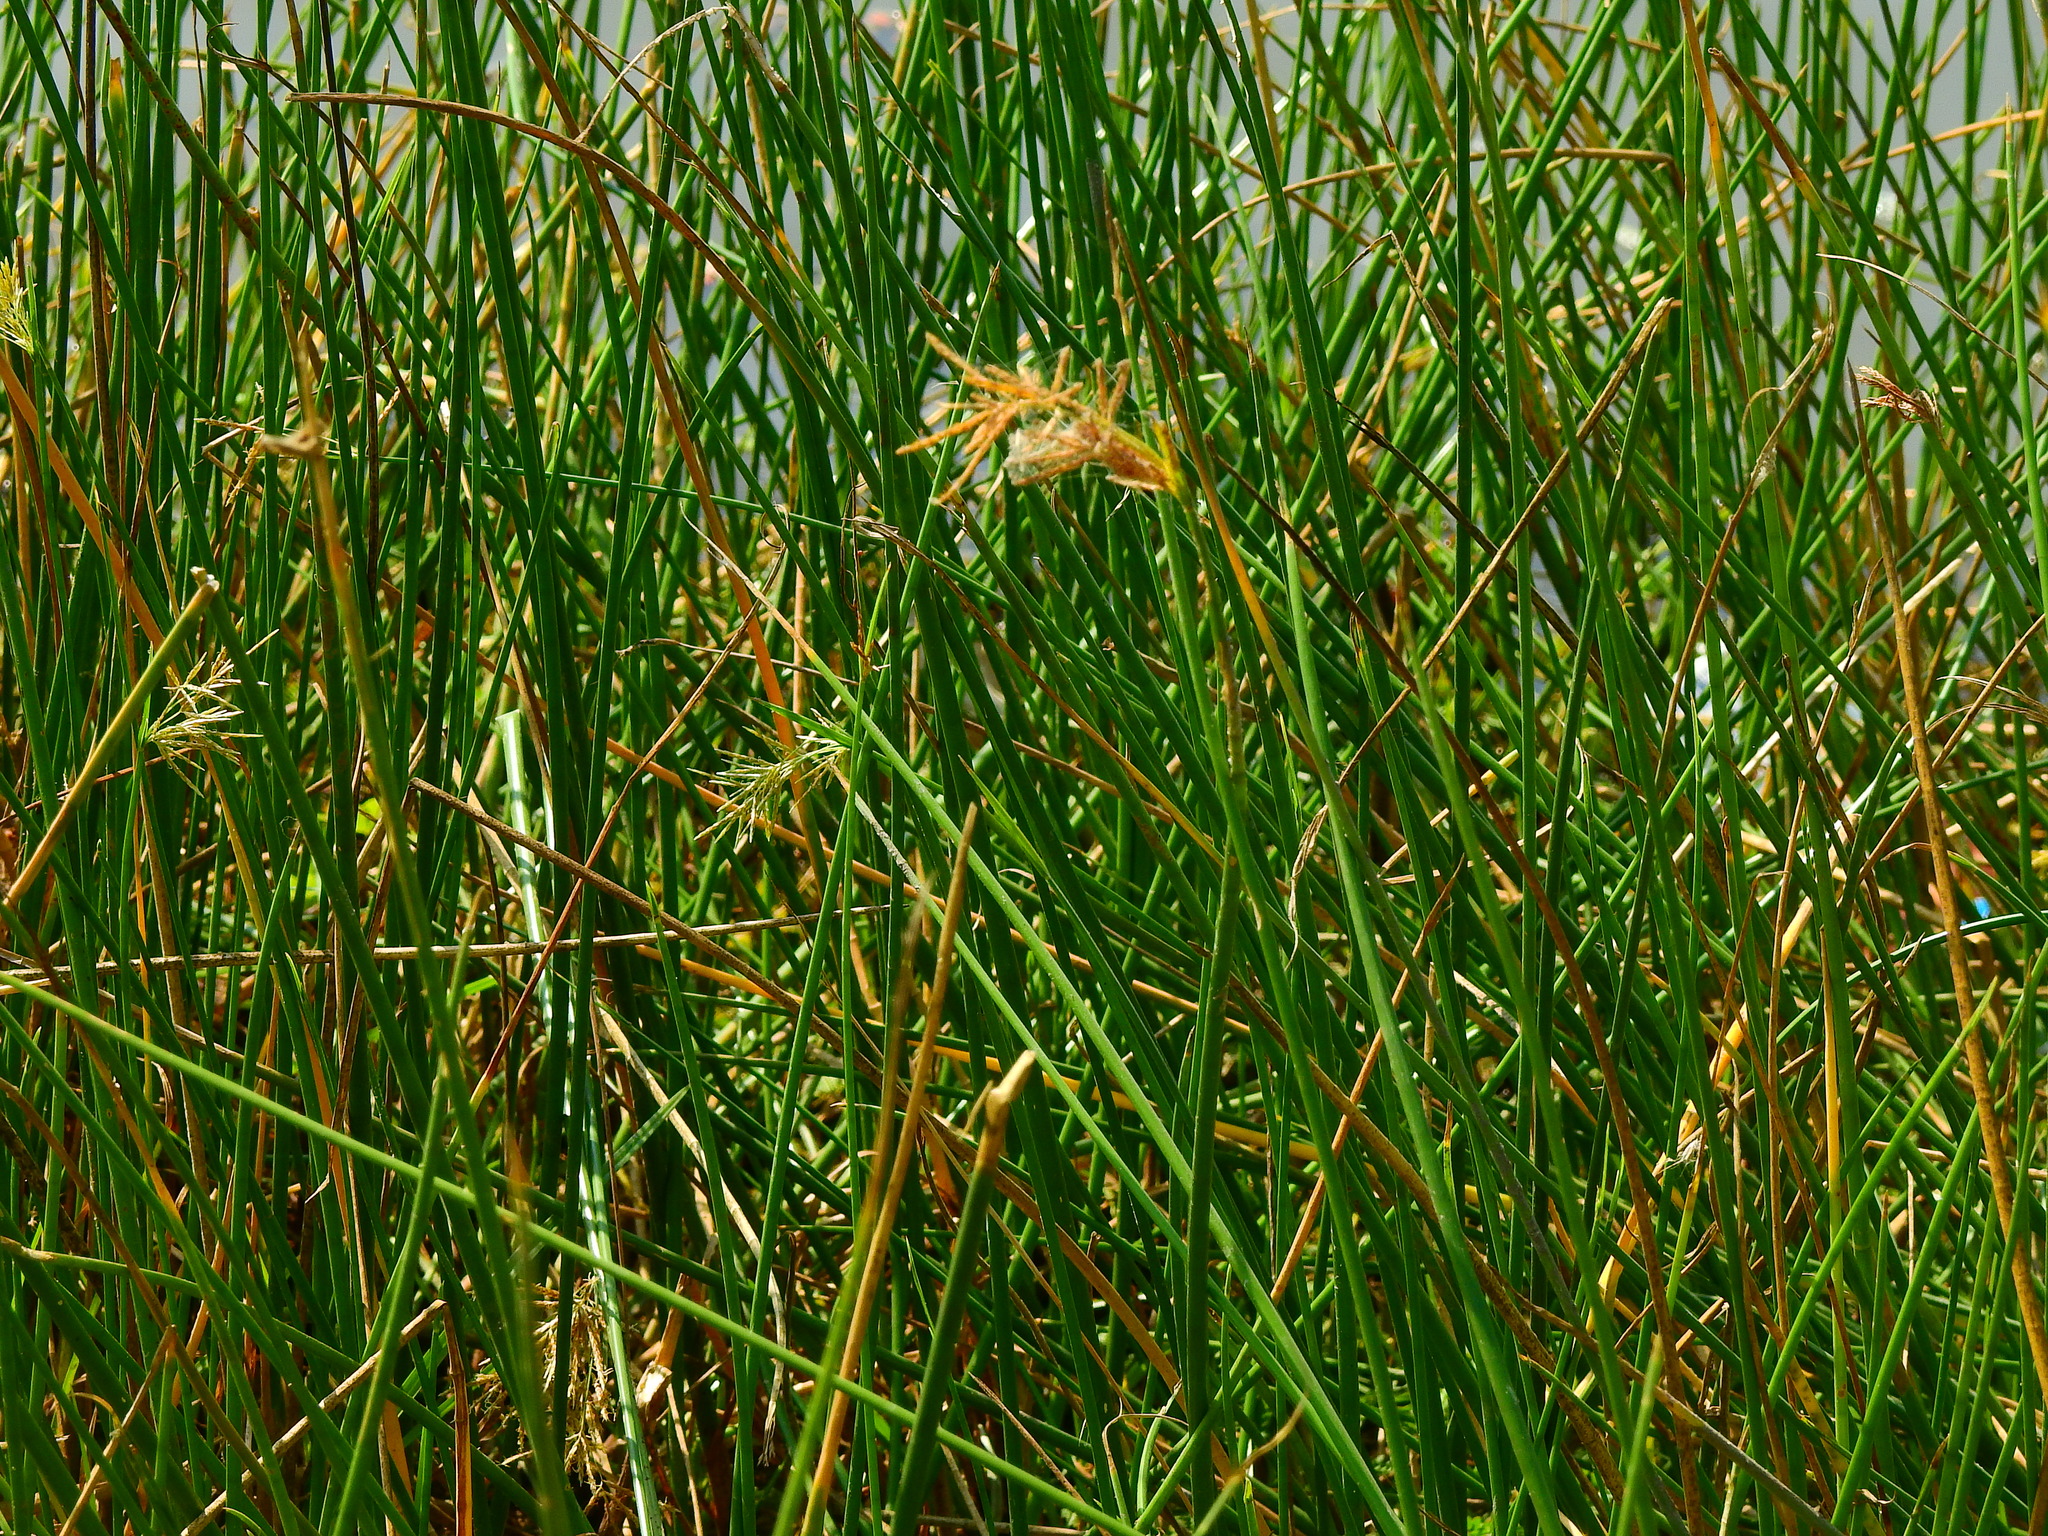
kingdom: Plantae
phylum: Tracheophyta
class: Liliopsida
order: Poales
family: Cyperaceae
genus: Schoenoplectus
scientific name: Schoenoplectus acutus
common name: Hardstem bulrush
